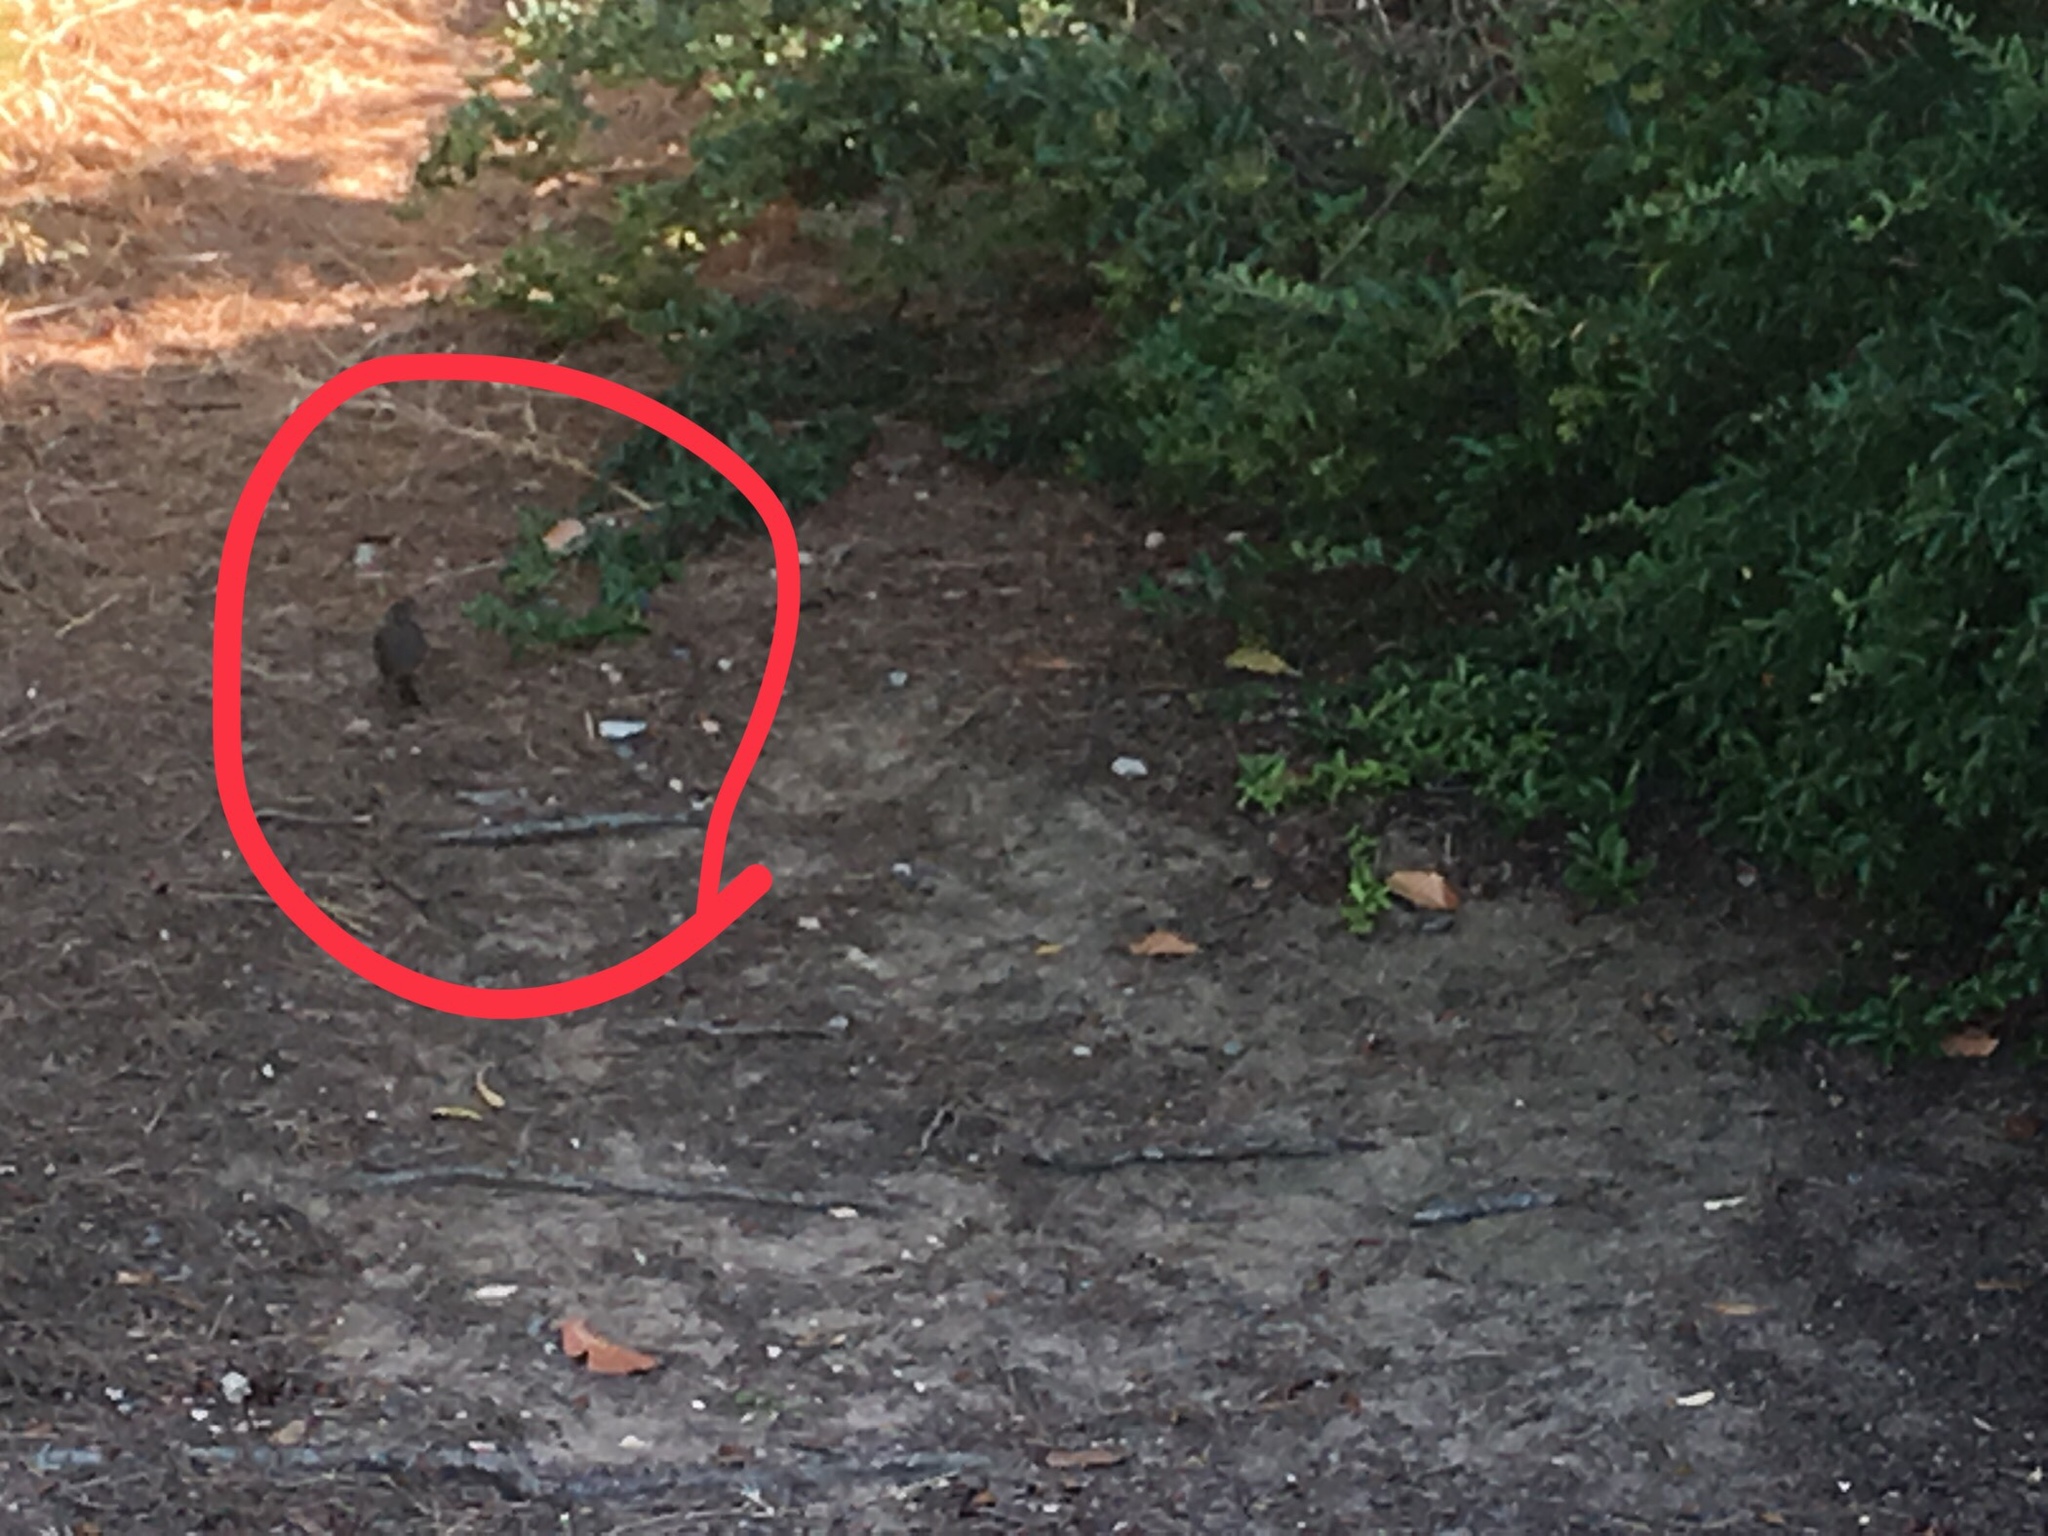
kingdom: Animalia
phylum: Chordata
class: Aves
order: Passeriformes
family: Passerellidae
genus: Melozone
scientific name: Melozone crissalis
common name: California towhee
